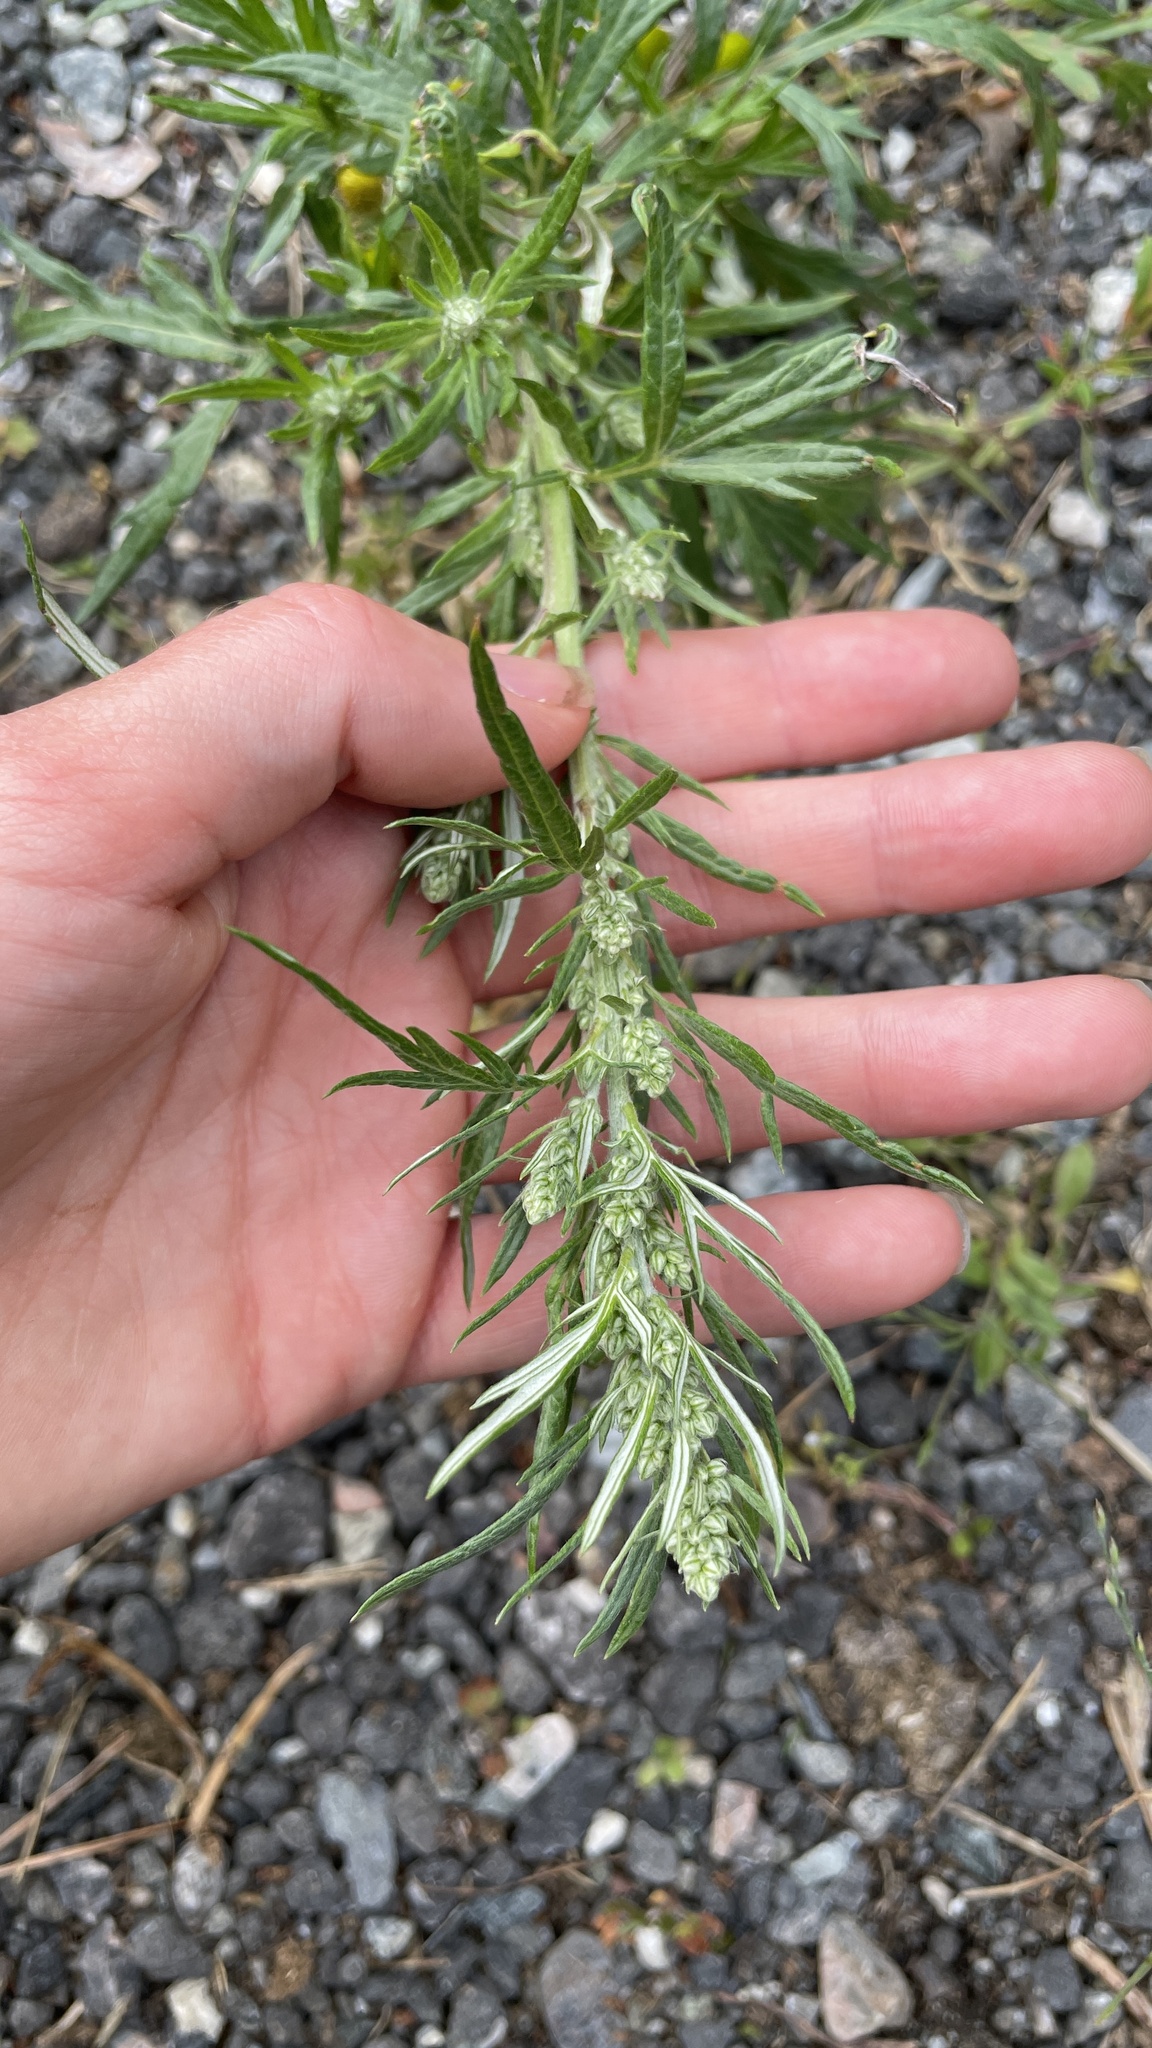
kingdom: Plantae
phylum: Tracheophyta
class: Magnoliopsida
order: Asterales
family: Asteraceae
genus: Artemisia
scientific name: Artemisia vulgaris
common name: Mugwort
